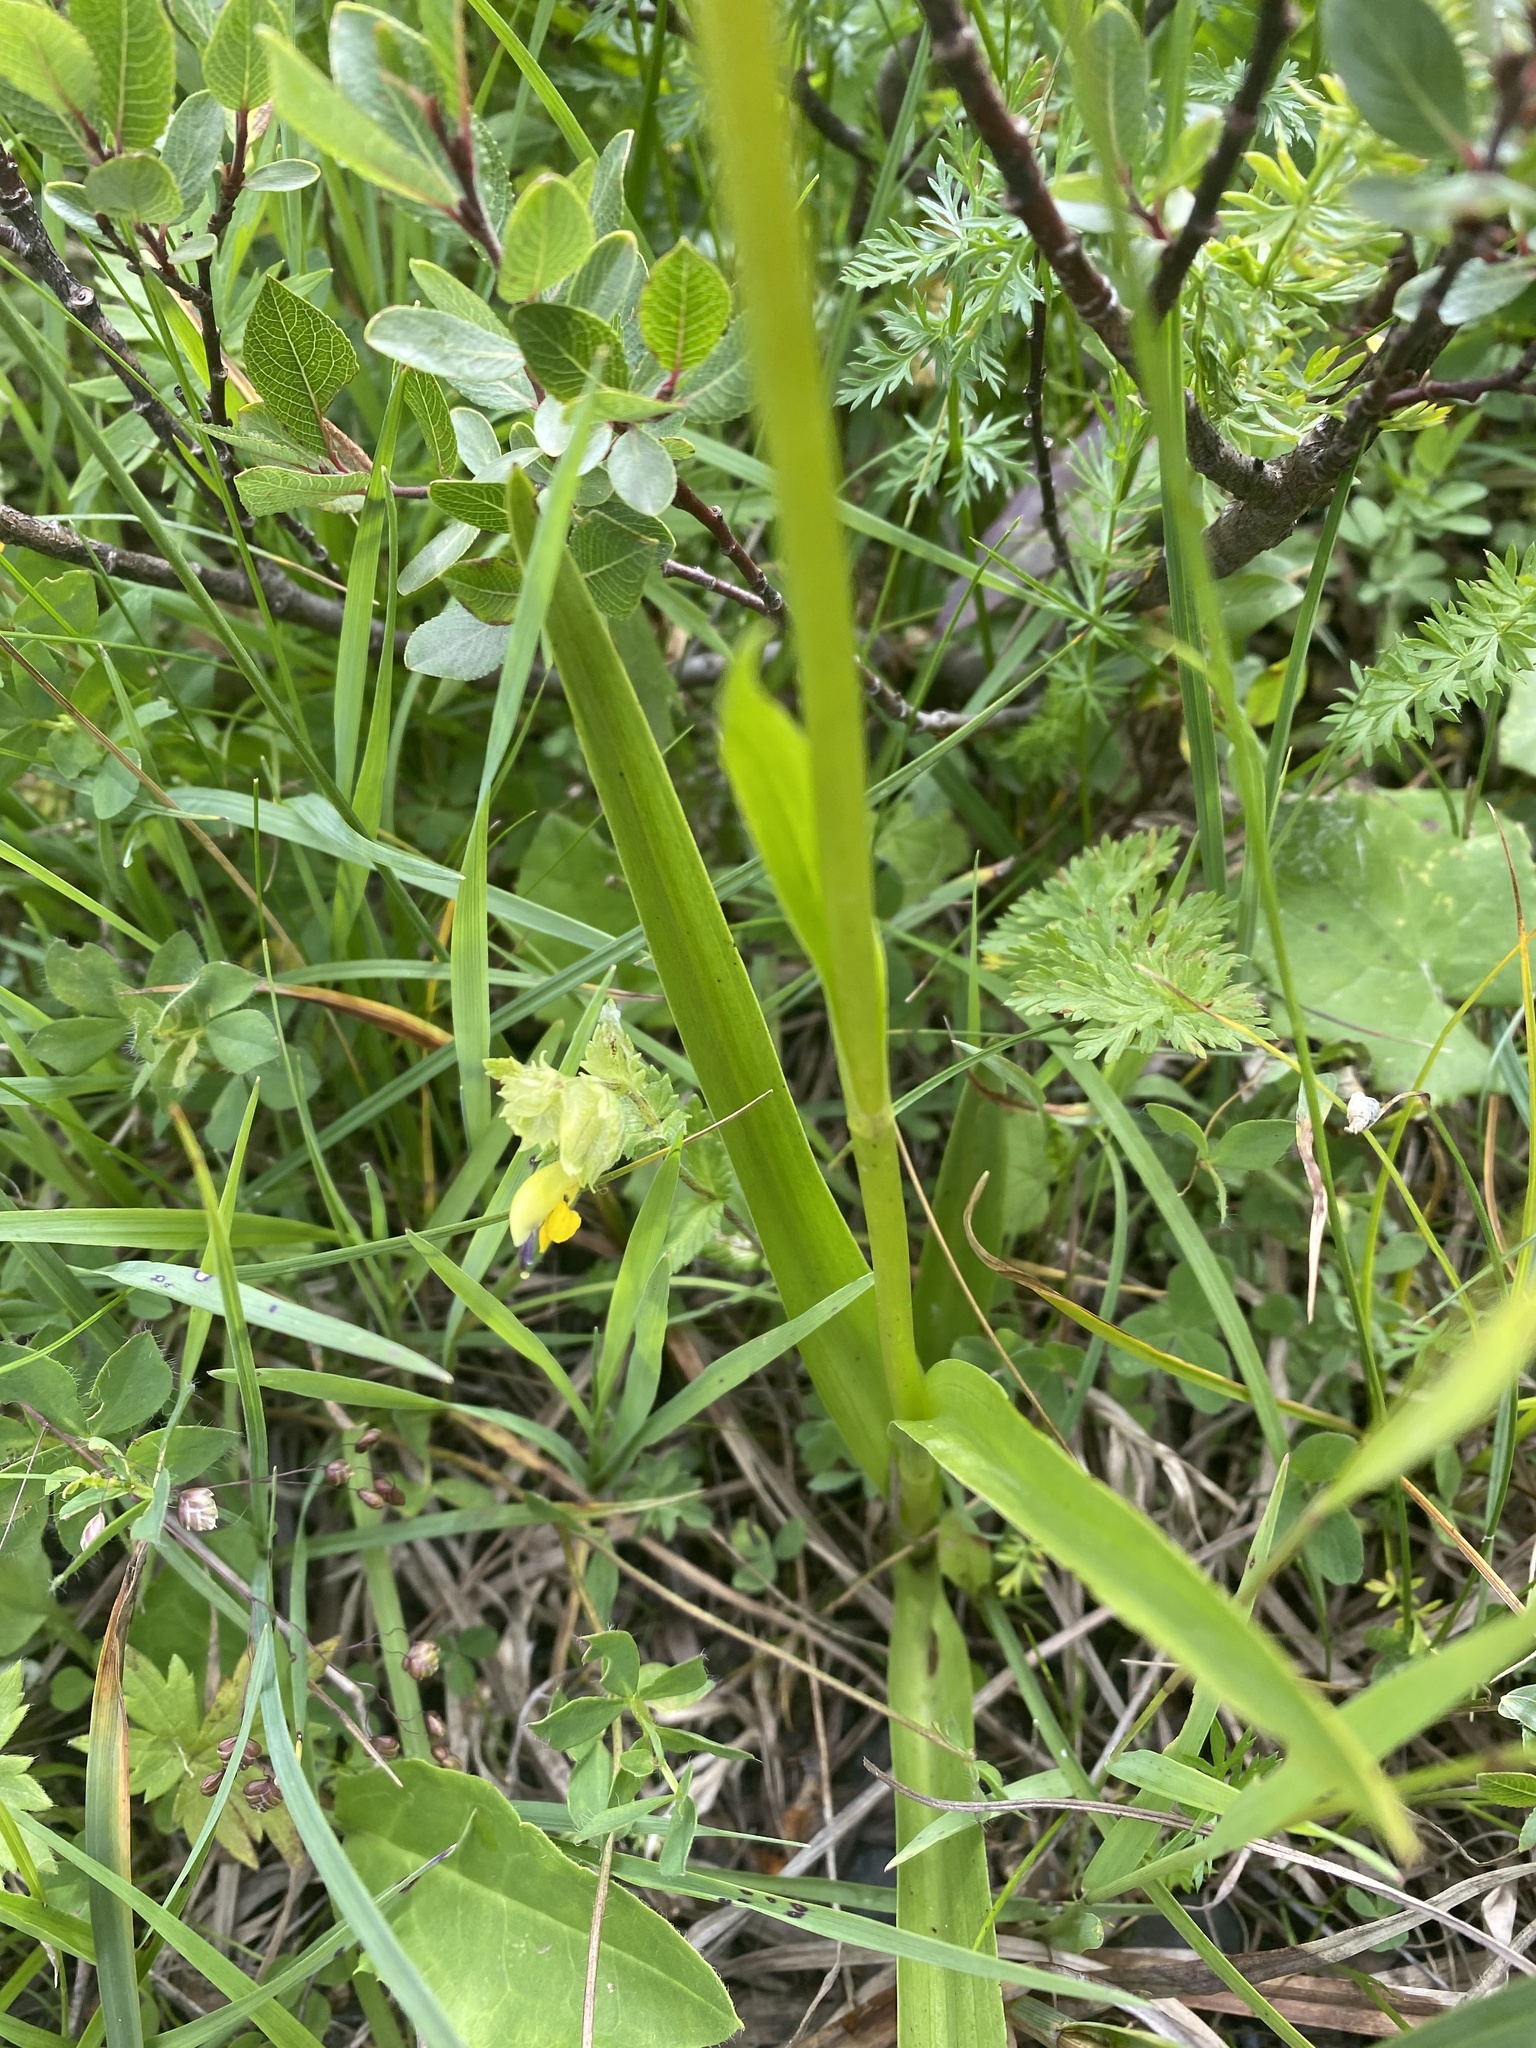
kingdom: Plantae
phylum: Tracheophyta
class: Liliopsida
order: Asparagales
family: Orchidaceae
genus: Gymnadenia
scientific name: Gymnadenia conopsea
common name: Fragrant orchid
